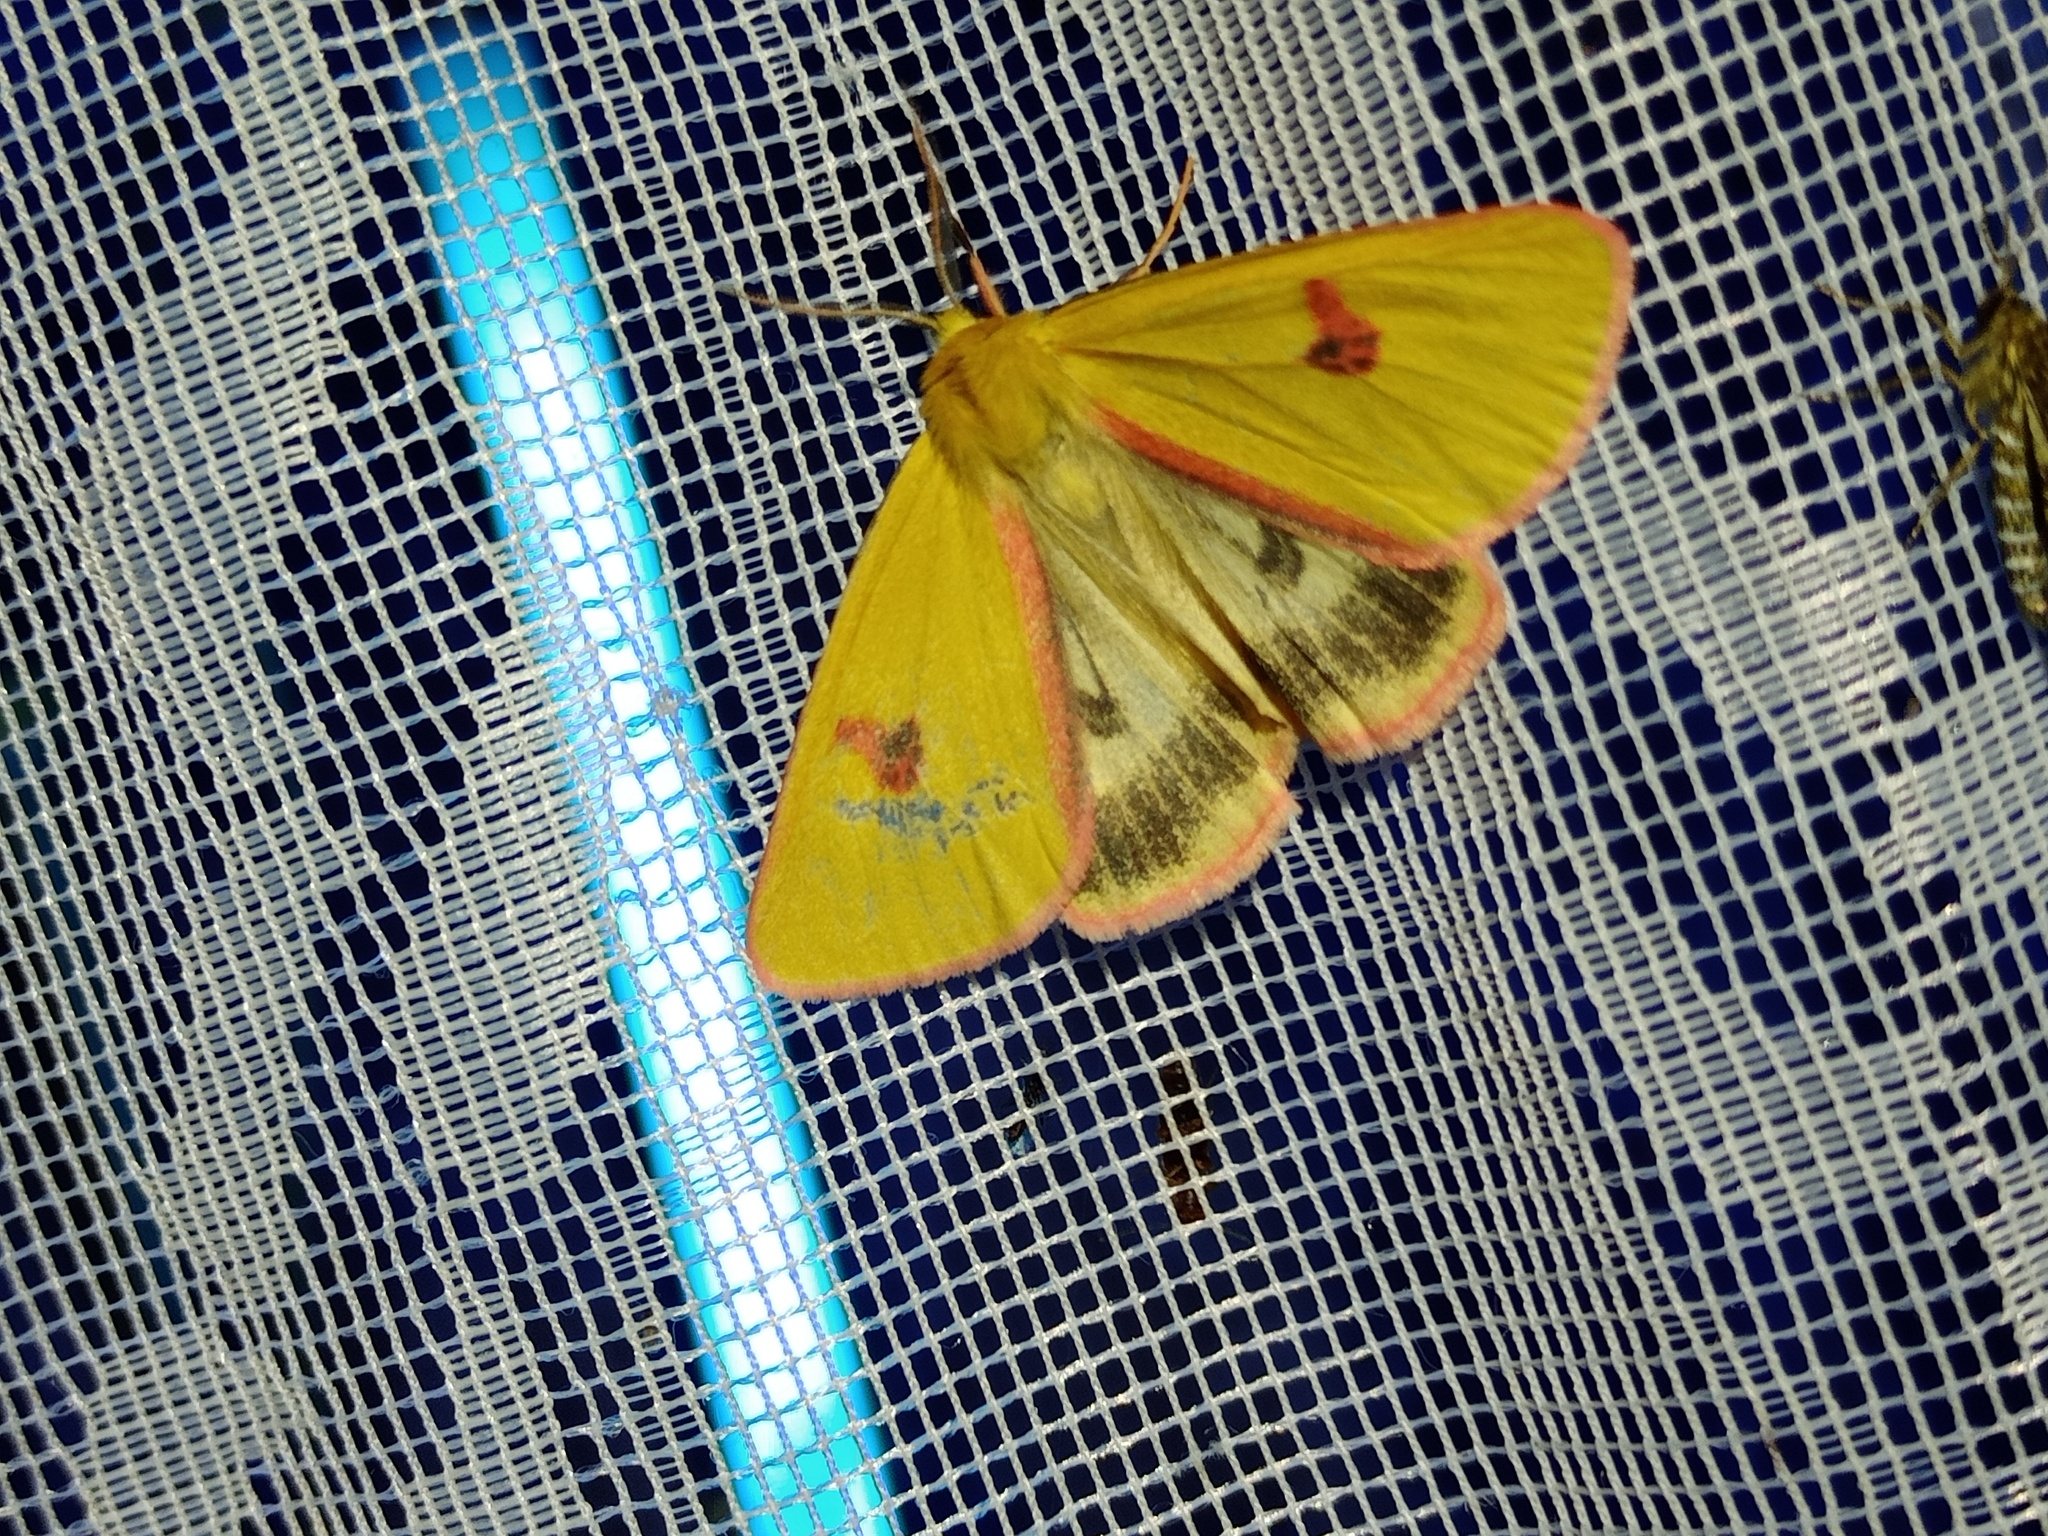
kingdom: Animalia
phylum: Arthropoda
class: Insecta
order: Lepidoptera
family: Erebidae
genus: Diacrisia
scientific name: Diacrisia sannio
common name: Clouded buff
